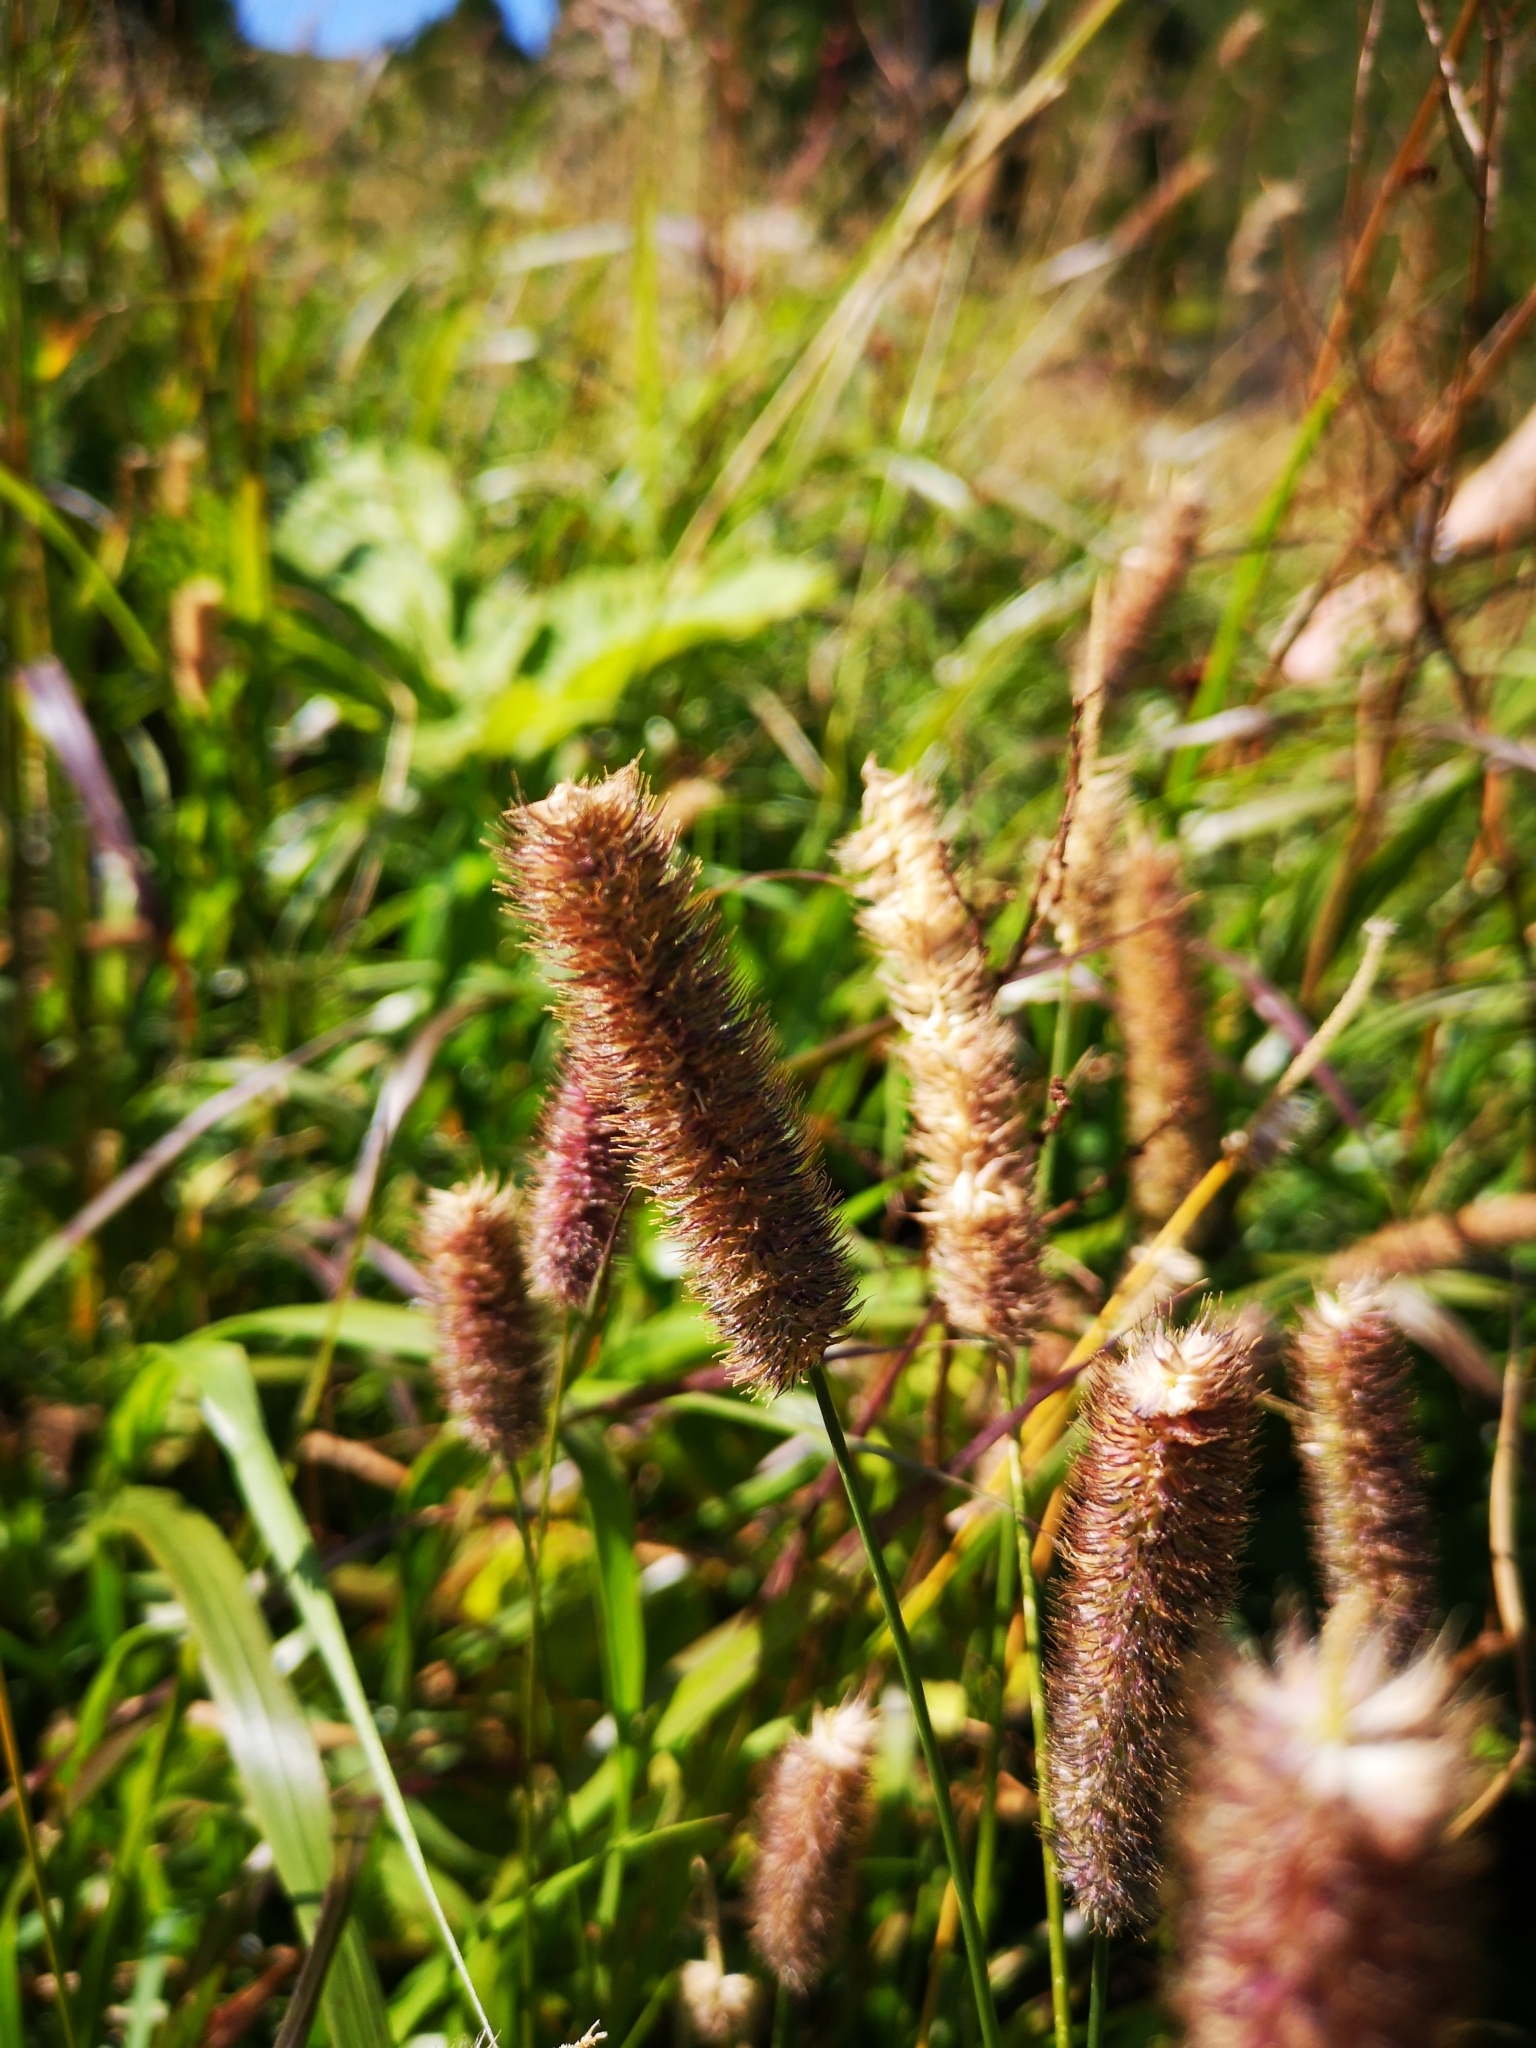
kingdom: Plantae
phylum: Tracheophyta
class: Liliopsida
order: Poales
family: Poaceae
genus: Phleum
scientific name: Phleum alpinum
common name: Alpine cat's-tail
